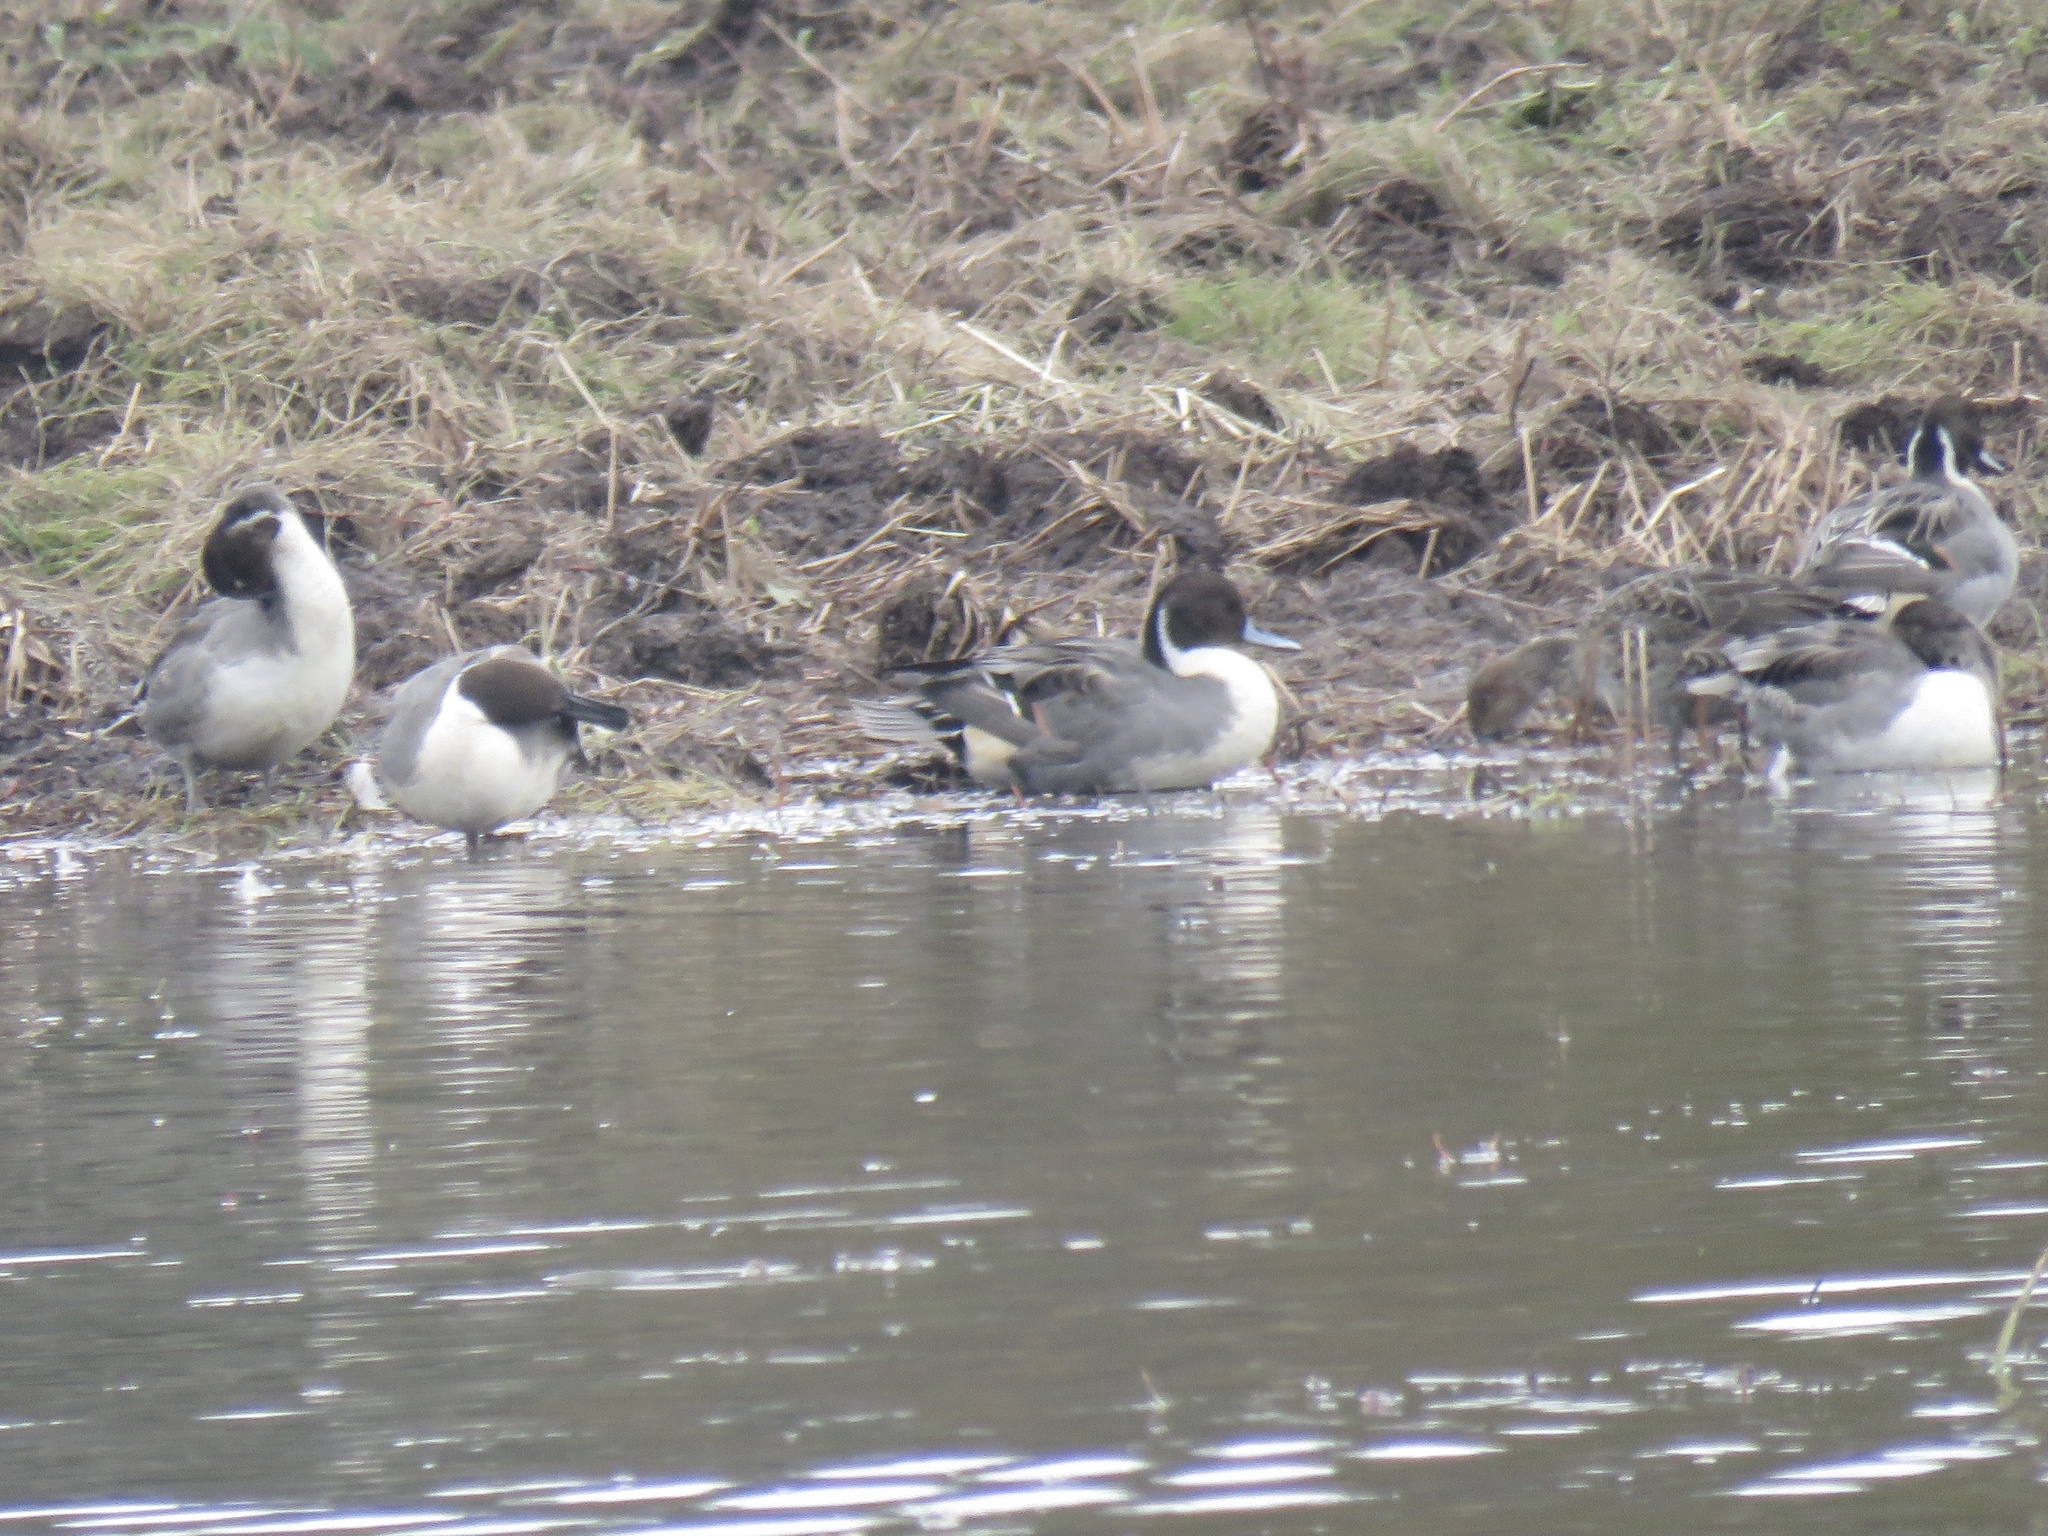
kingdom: Animalia
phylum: Chordata
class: Aves
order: Anseriformes
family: Anatidae
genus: Anas
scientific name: Anas acuta
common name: Northern pintail
